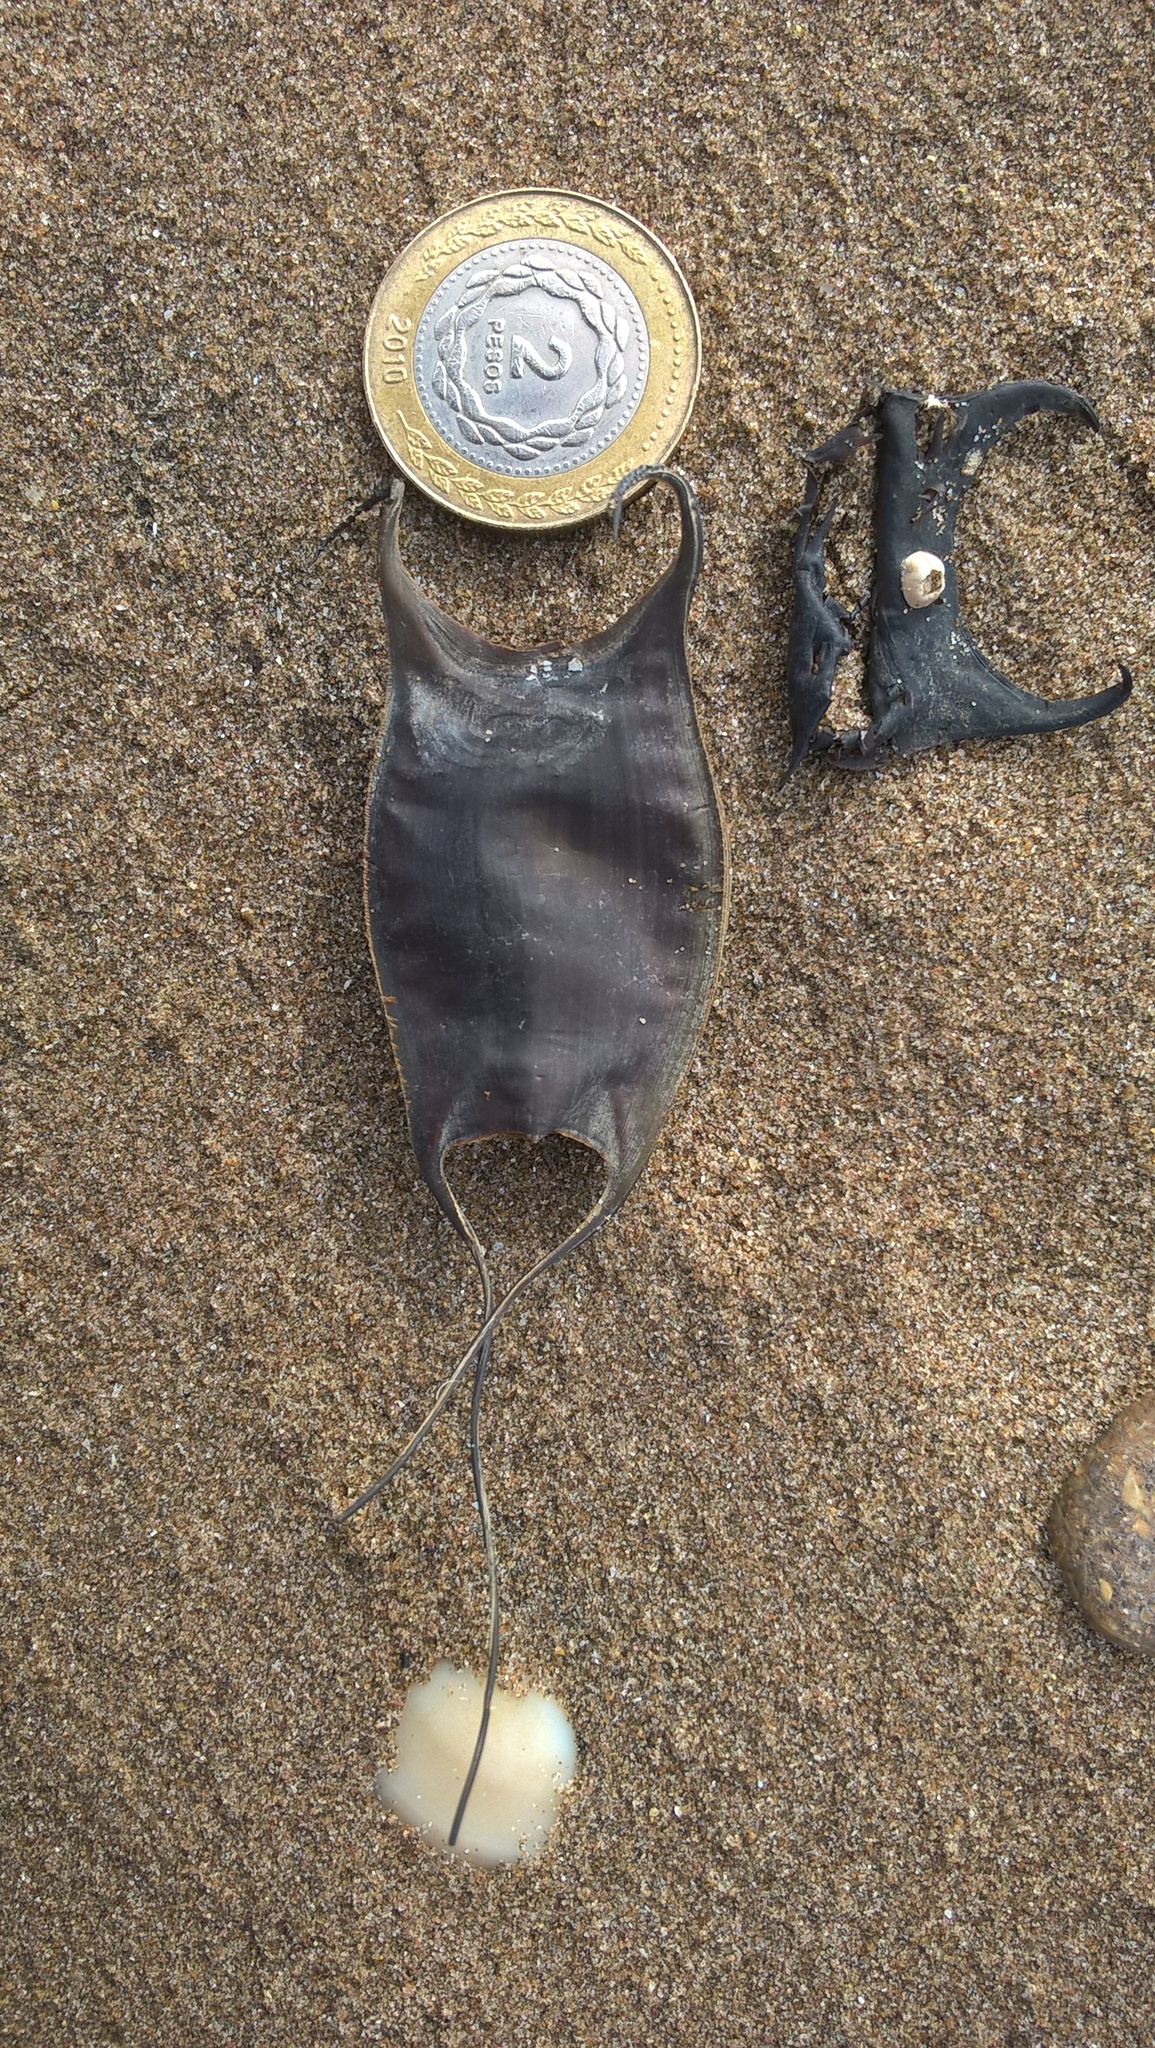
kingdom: Animalia
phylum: Chordata
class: Elasmobranchii
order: Rajiformes
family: Arhynchobatidae
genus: Sympterygia
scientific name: Sympterygia acuta
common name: Bignose fanskate
